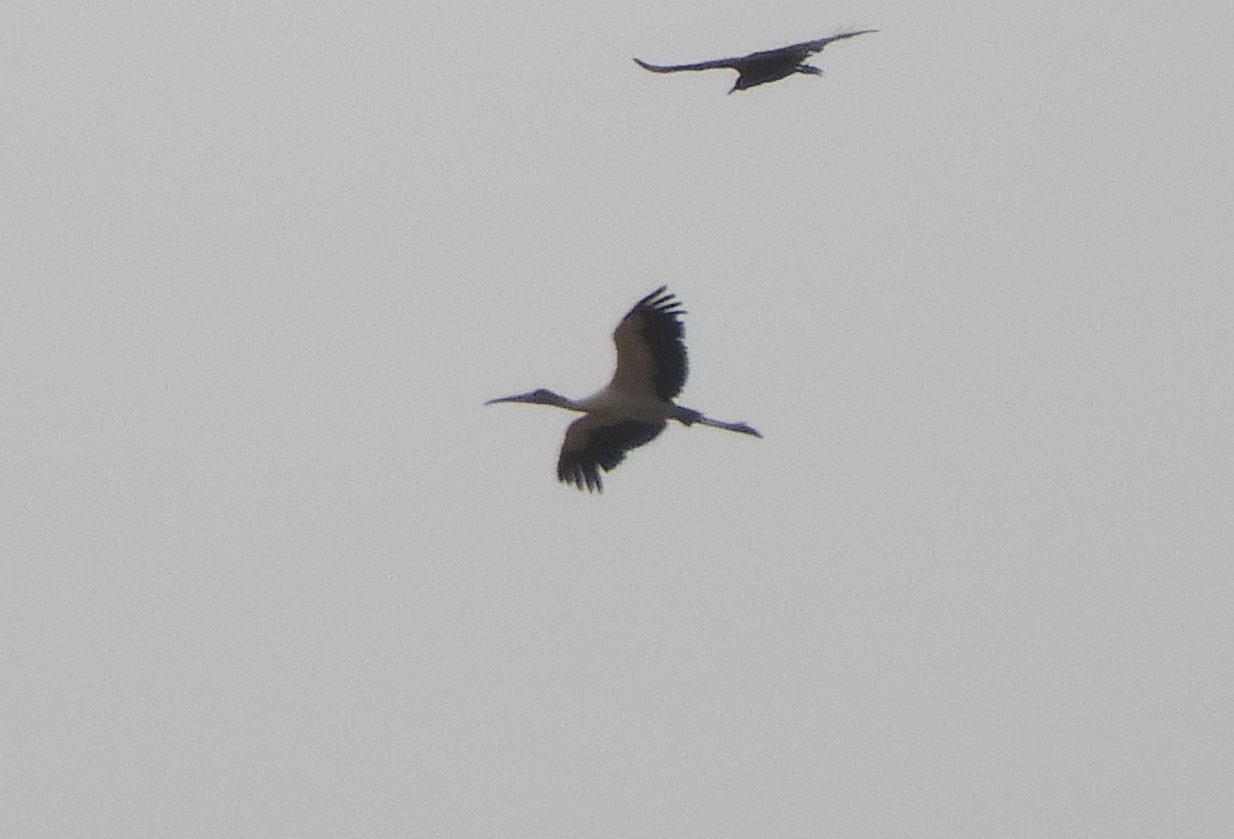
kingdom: Animalia
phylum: Chordata
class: Aves
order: Ciconiiformes
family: Ciconiidae
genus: Mycteria
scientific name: Mycteria americana
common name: Wood stork
